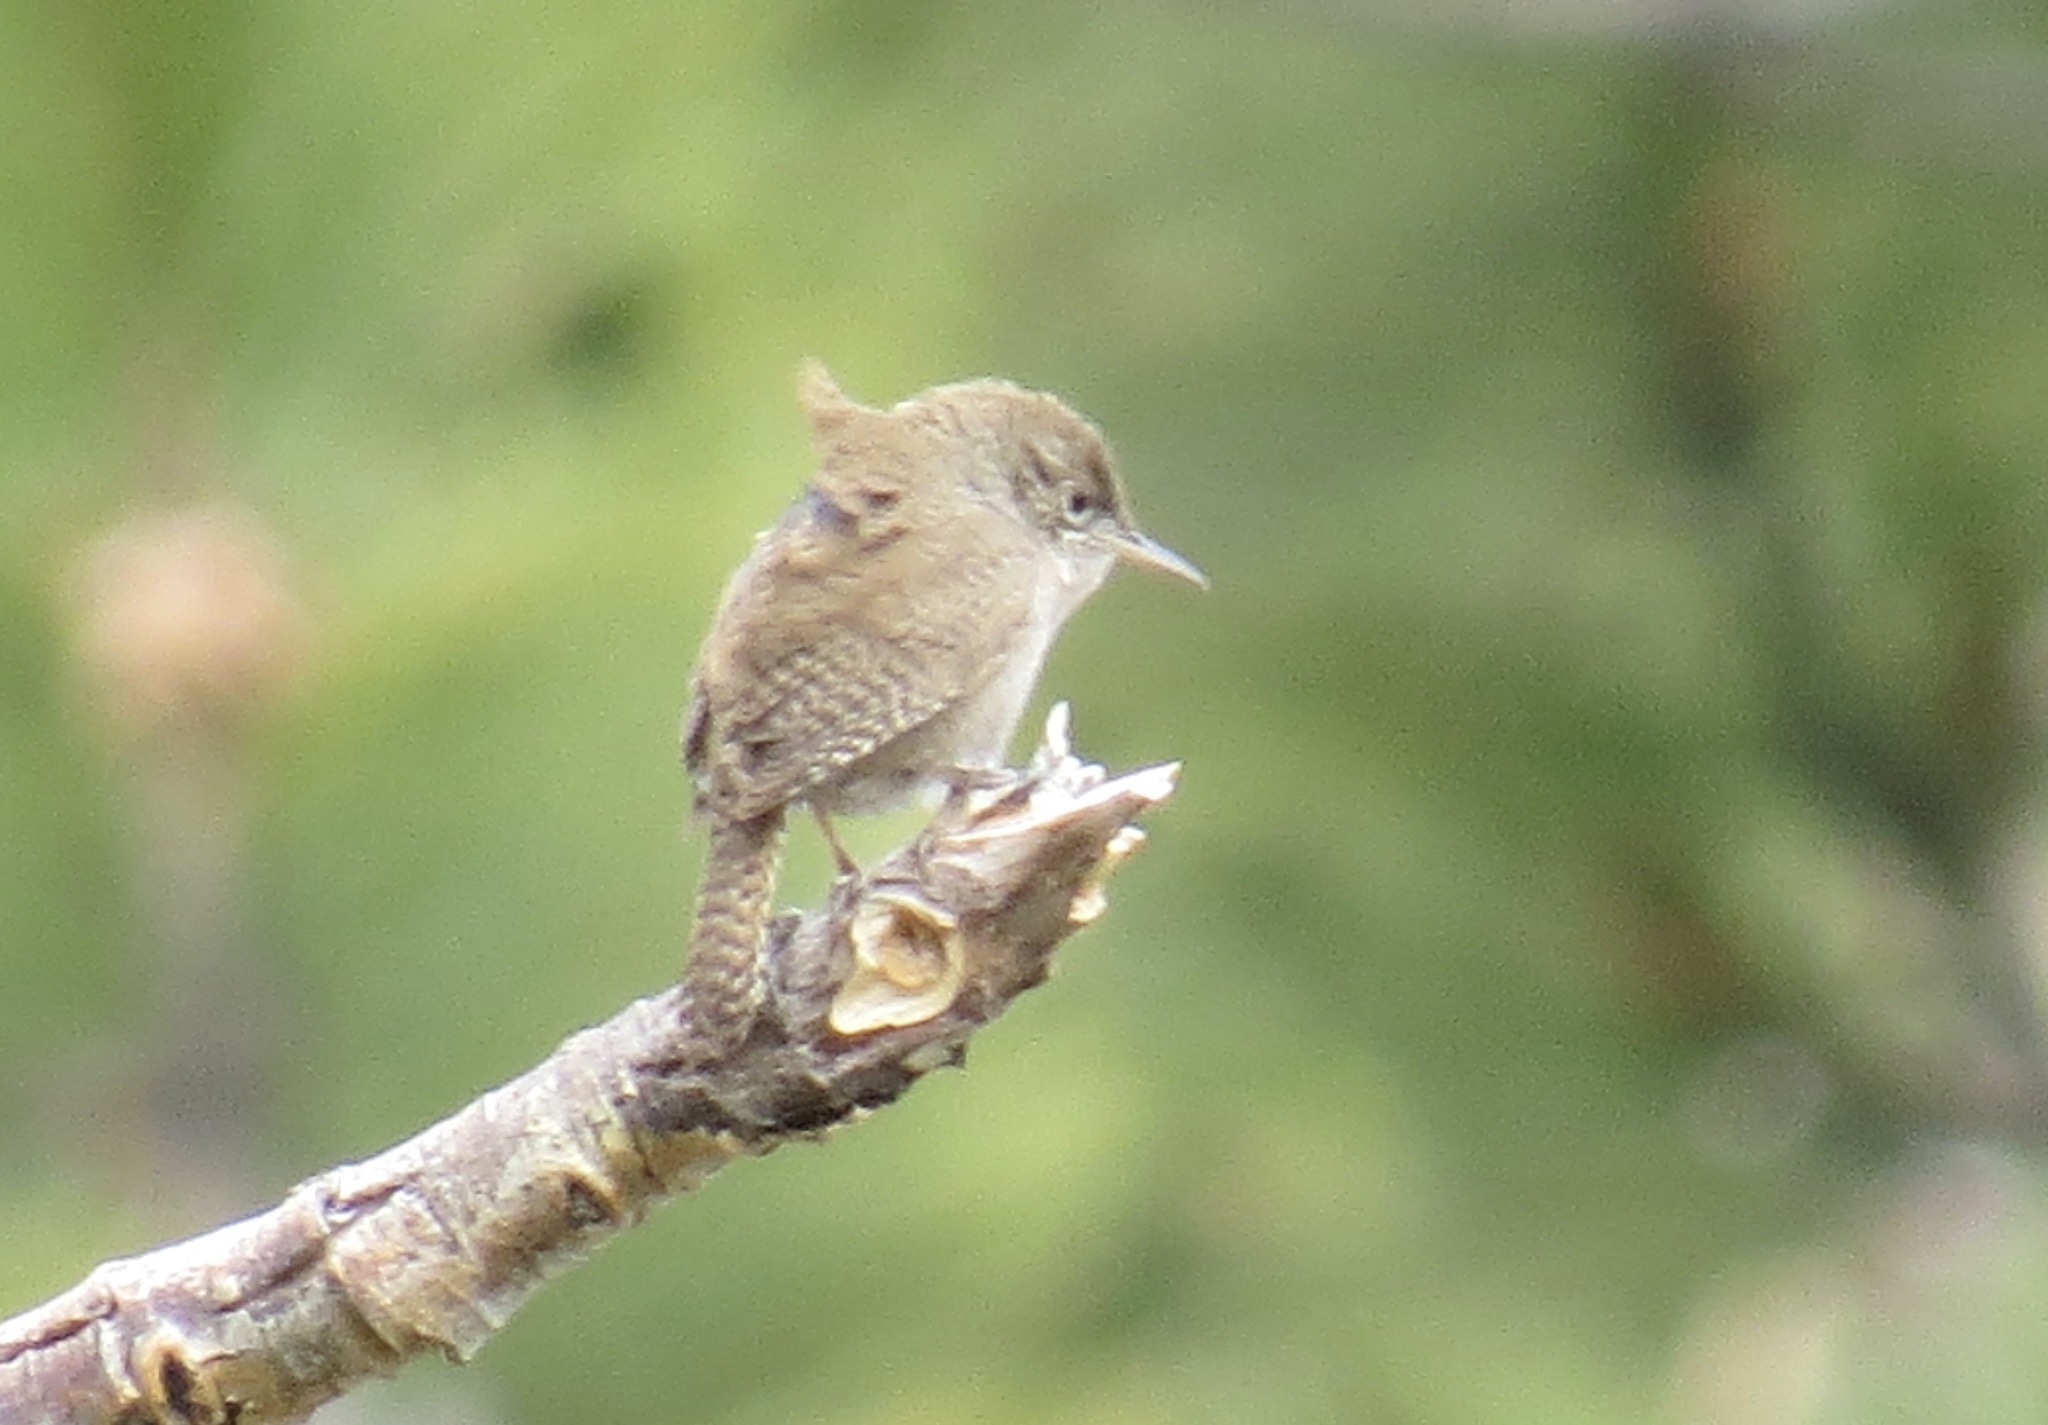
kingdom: Animalia
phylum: Chordata
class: Aves
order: Passeriformes
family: Troglodytidae
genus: Troglodytes
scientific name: Troglodytes aedon
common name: House wren
